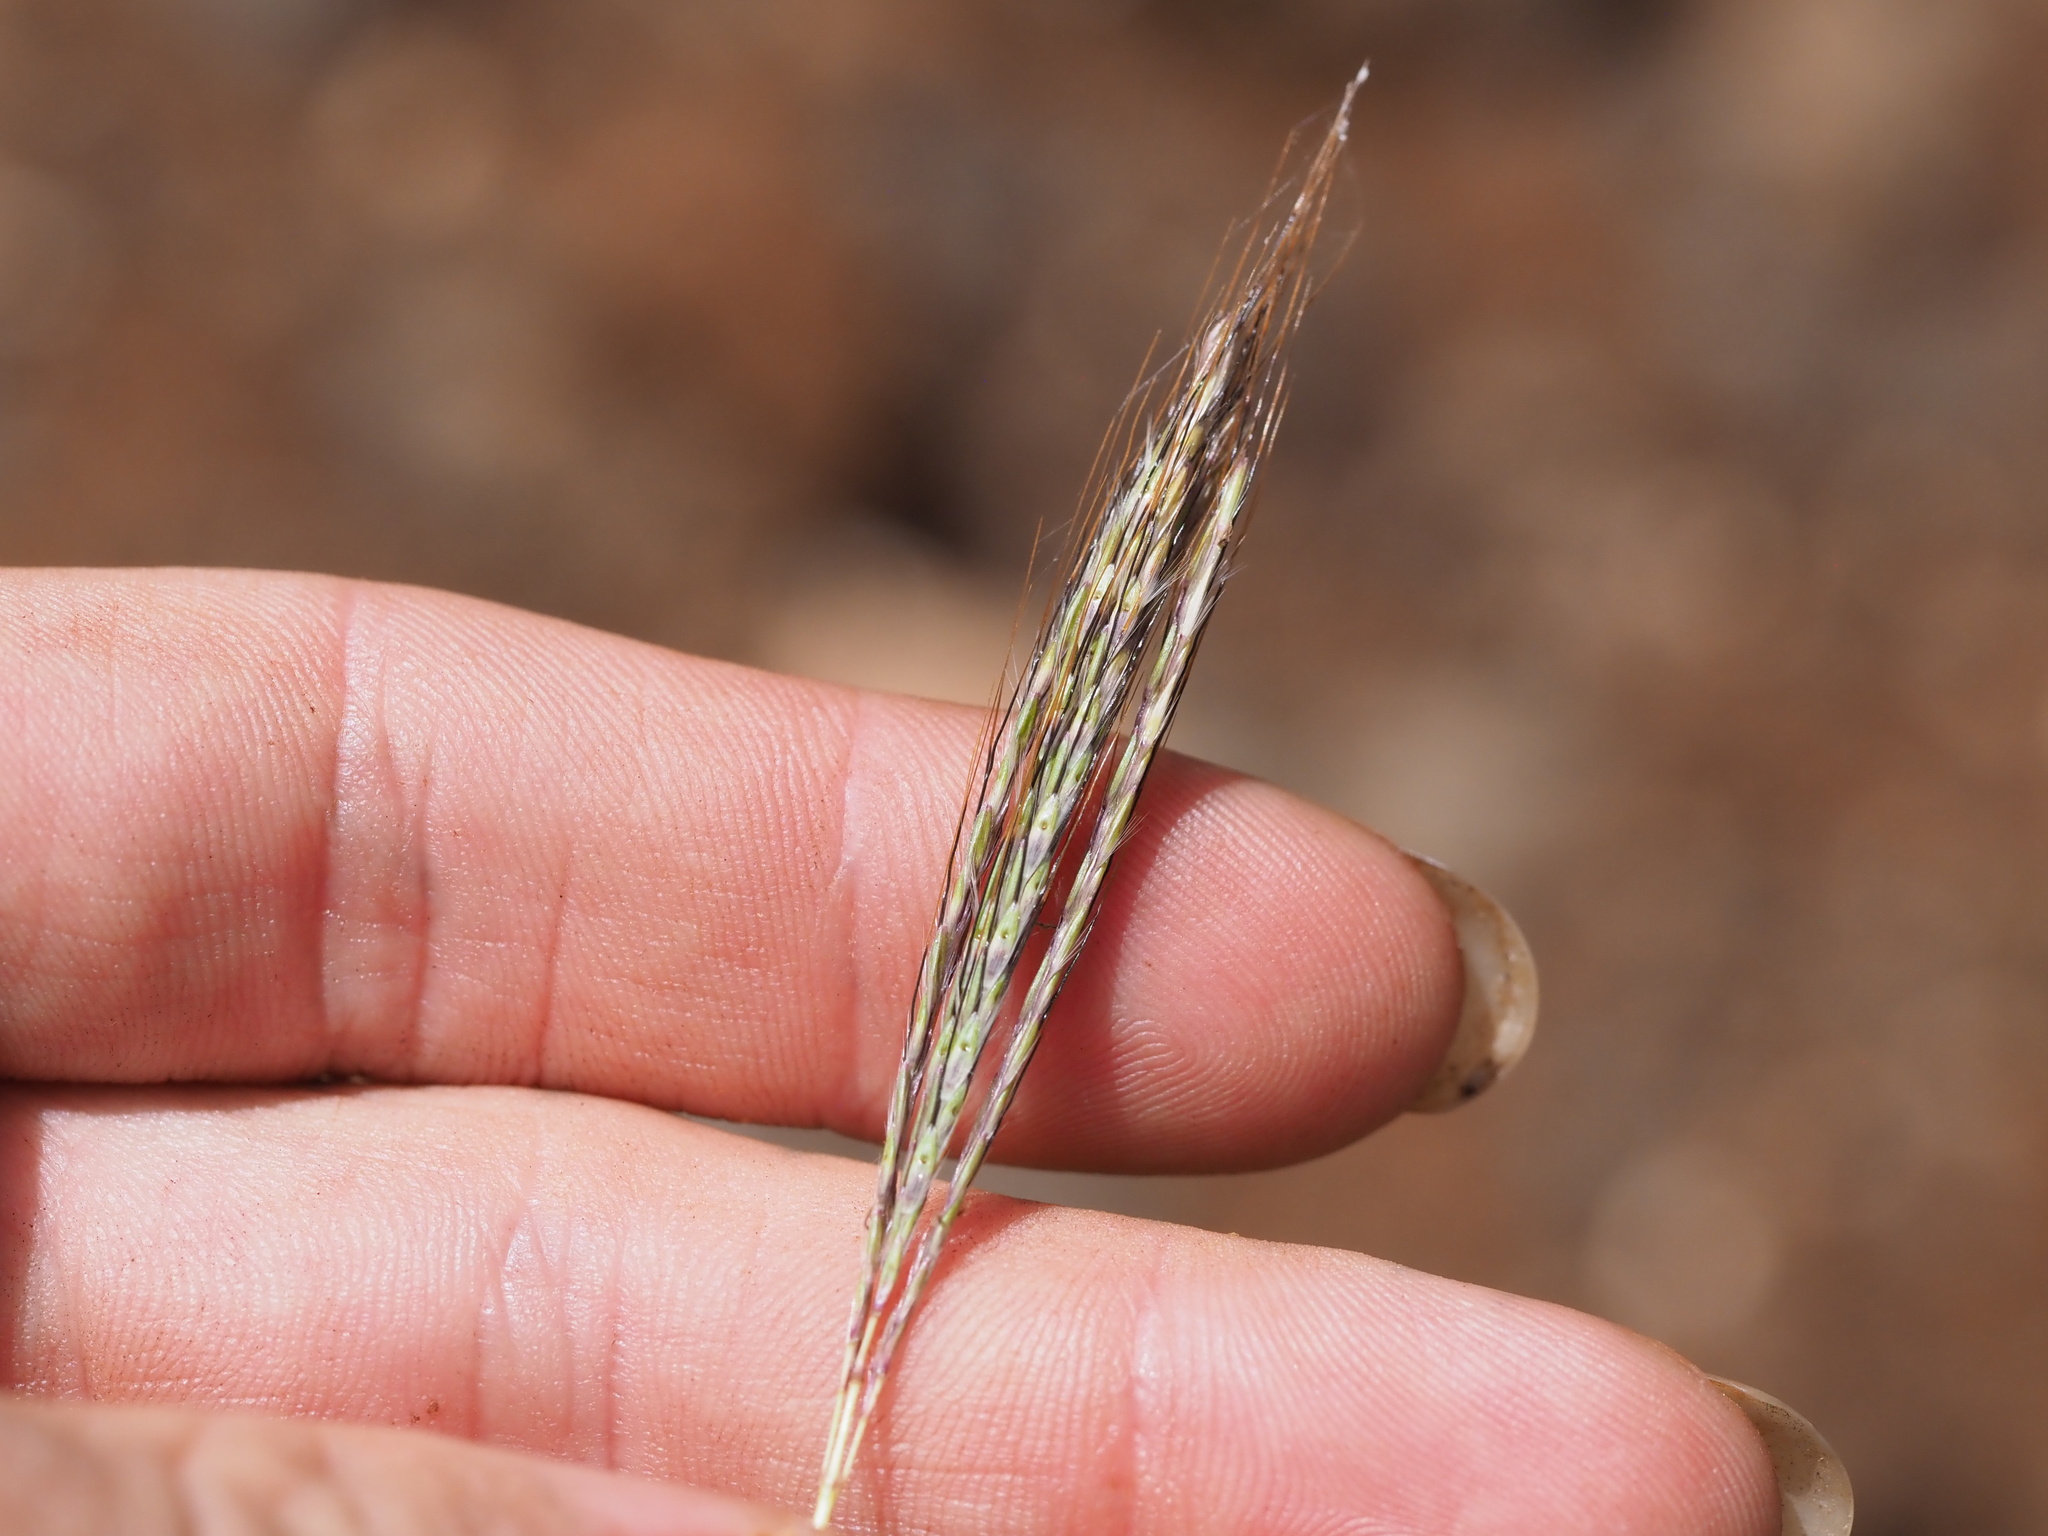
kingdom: Plantae
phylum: Tracheophyta
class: Liliopsida
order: Poales
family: Poaceae
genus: Bothriochloa
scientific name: Bothriochloa pertusa
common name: Pitted beardgrass
